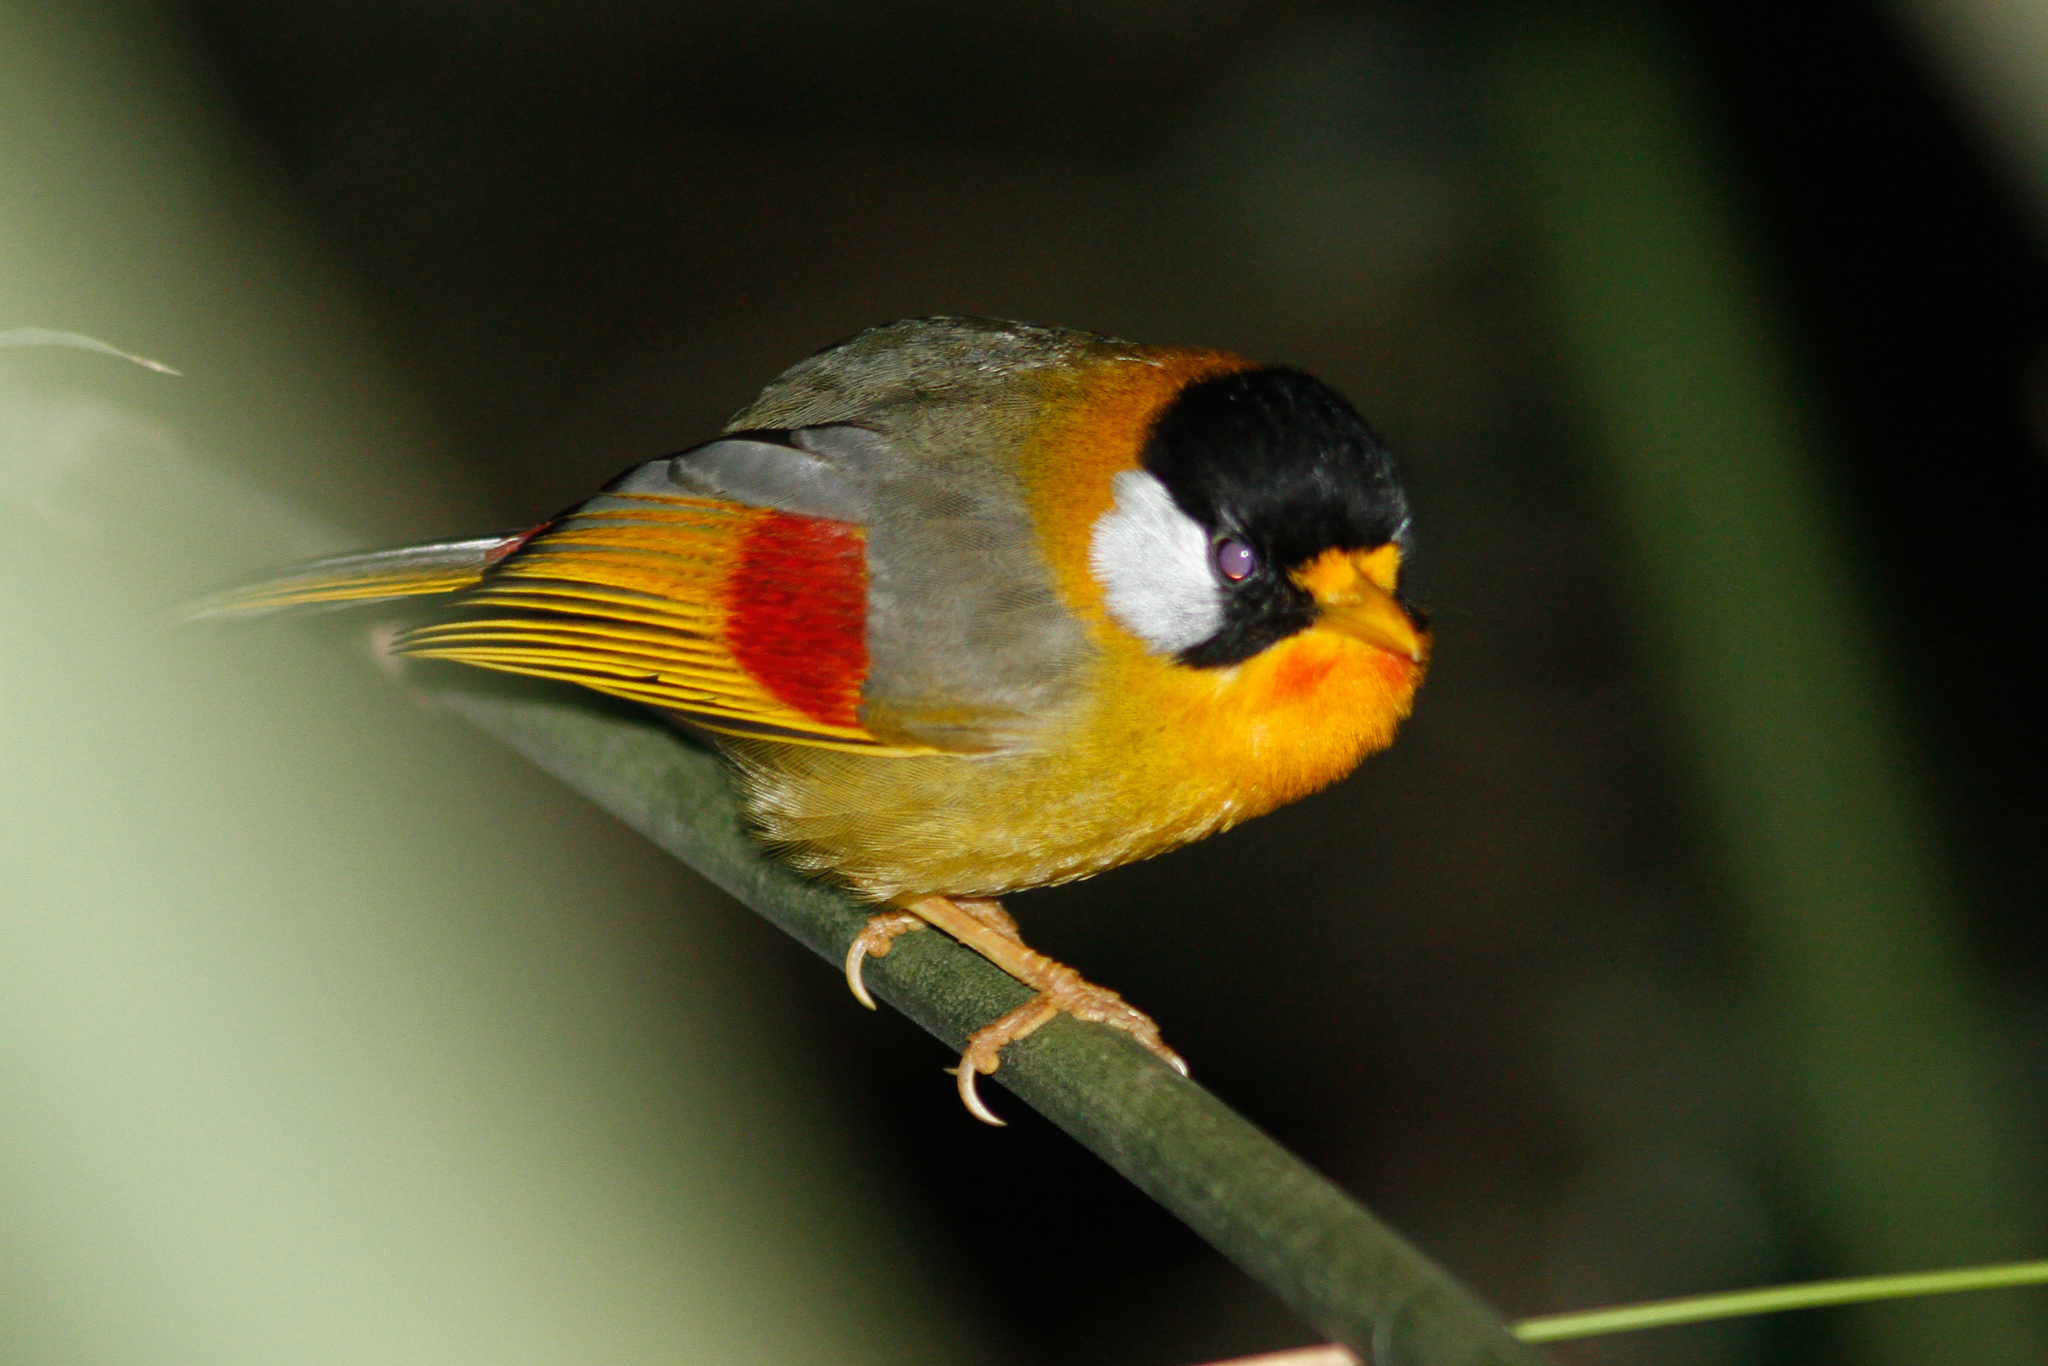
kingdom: Animalia
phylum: Chordata
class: Aves
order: Passeriformes
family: Leiothrichidae
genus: Leiothrix
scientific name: Leiothrix argentauris
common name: Silver-eared mesia
